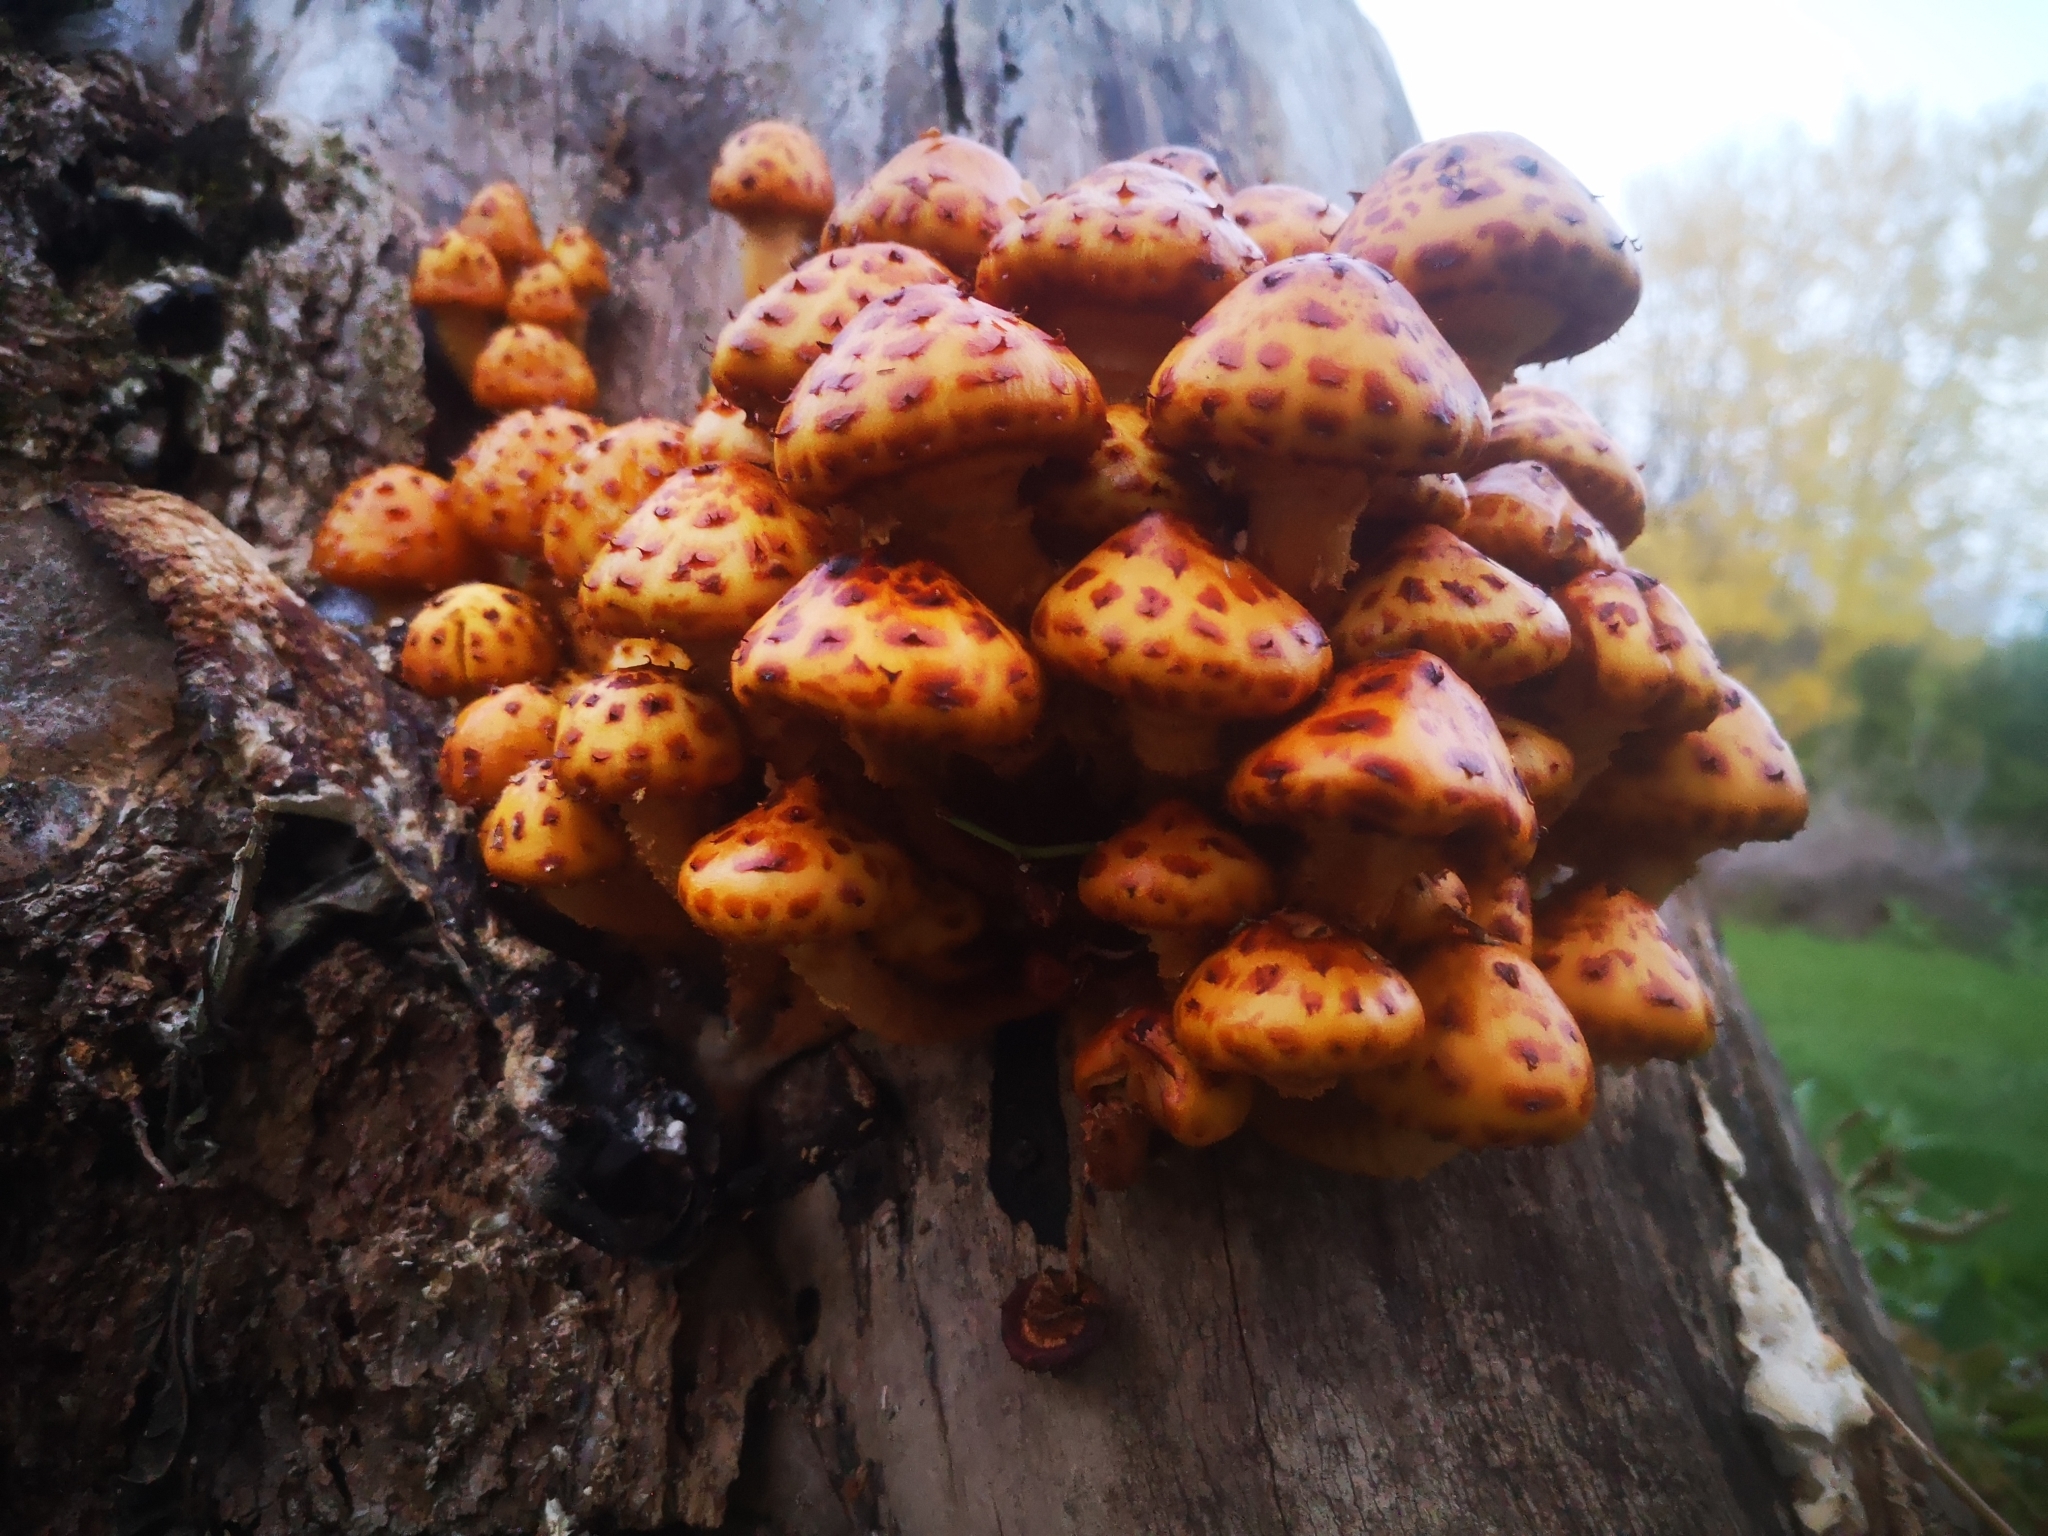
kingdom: Fungi
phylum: Basidiomycota
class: Agaricomycetes
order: Agaricales
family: Strophariaceae
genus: Pholiota
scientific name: Pholiota aurivella
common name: Golden scalycap
